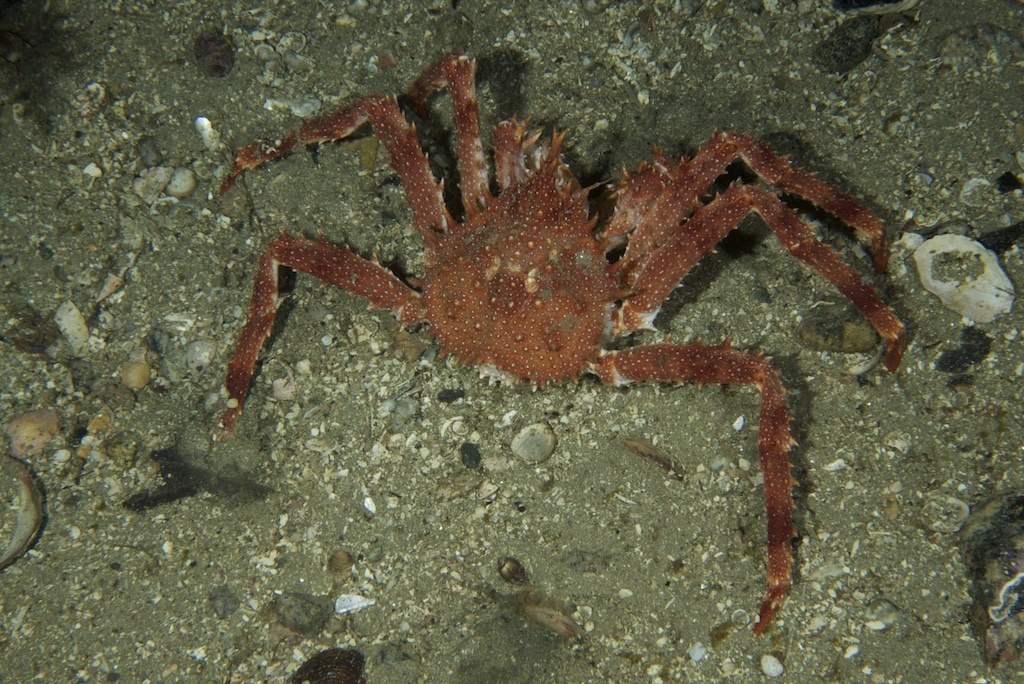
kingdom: Animalia
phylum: Arthropoda
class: Malacostraca
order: Decapoda
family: Lithodidae
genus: Lithodes
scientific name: Lithodes maja
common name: Northern stone crab
